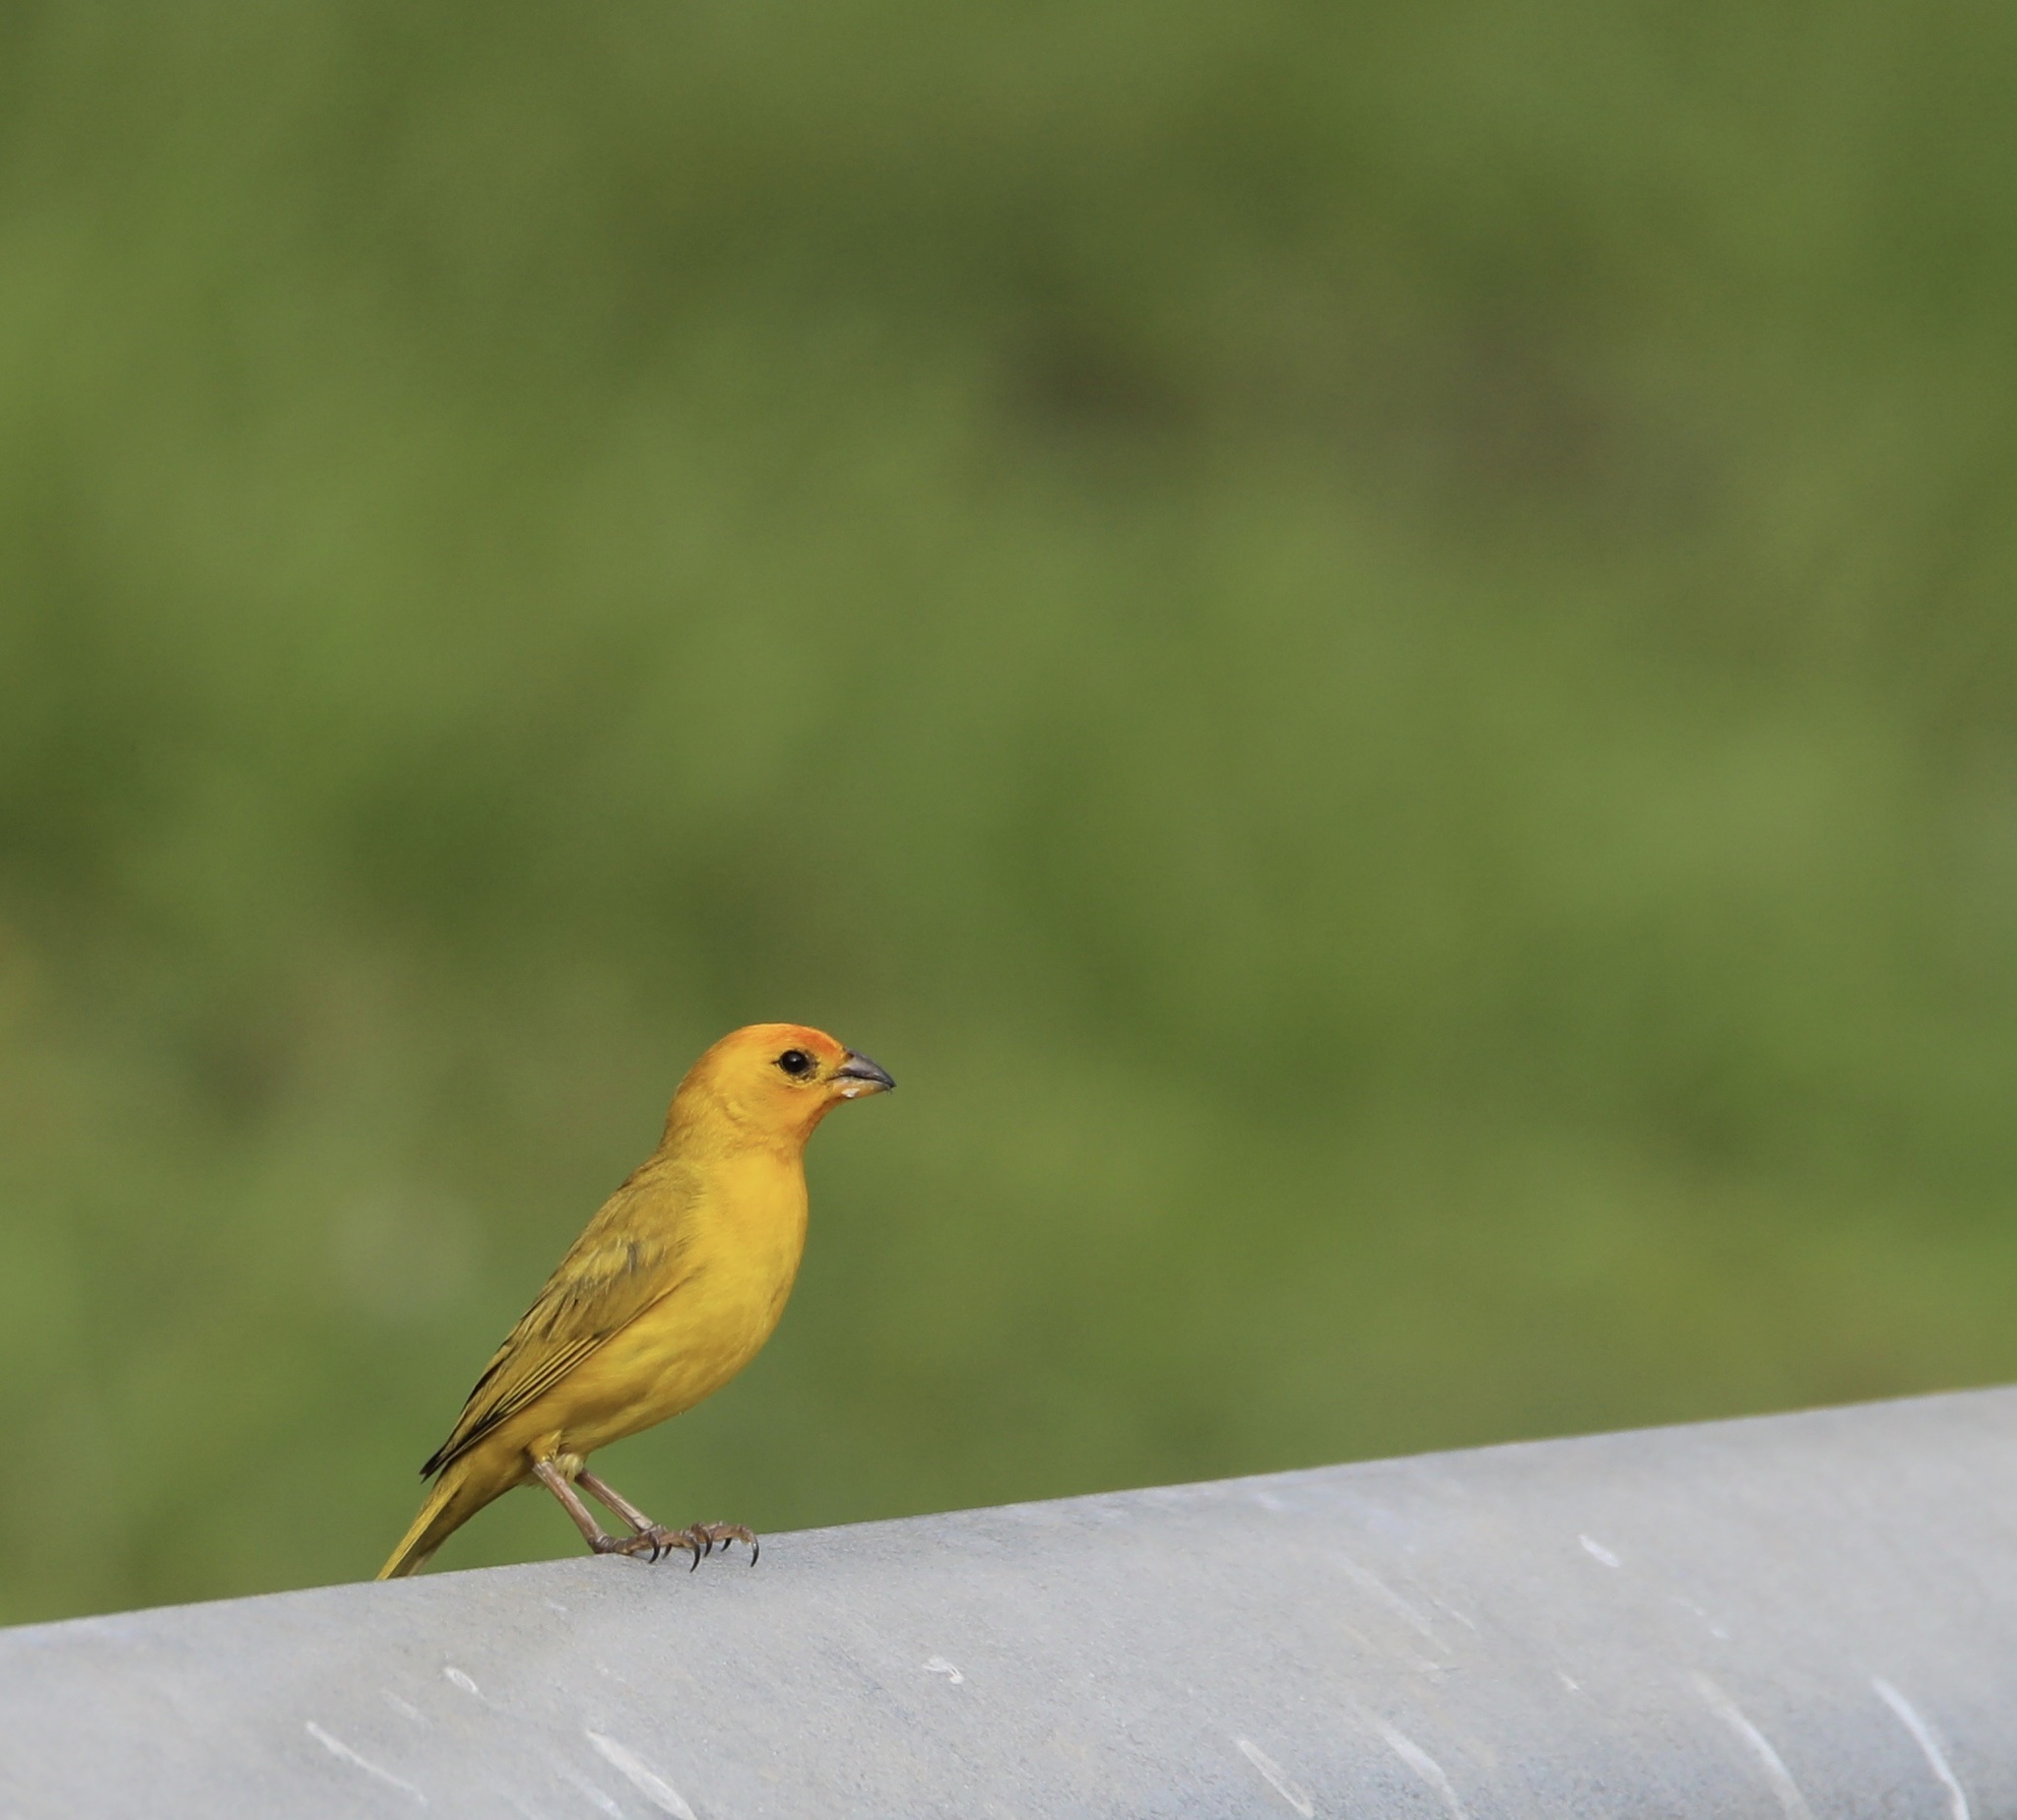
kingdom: Animalia
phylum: Chordata
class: Aves
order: Passeriformes
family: Thraupidae
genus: Sicalis
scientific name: Sicalis flaveola
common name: Saffron finch
